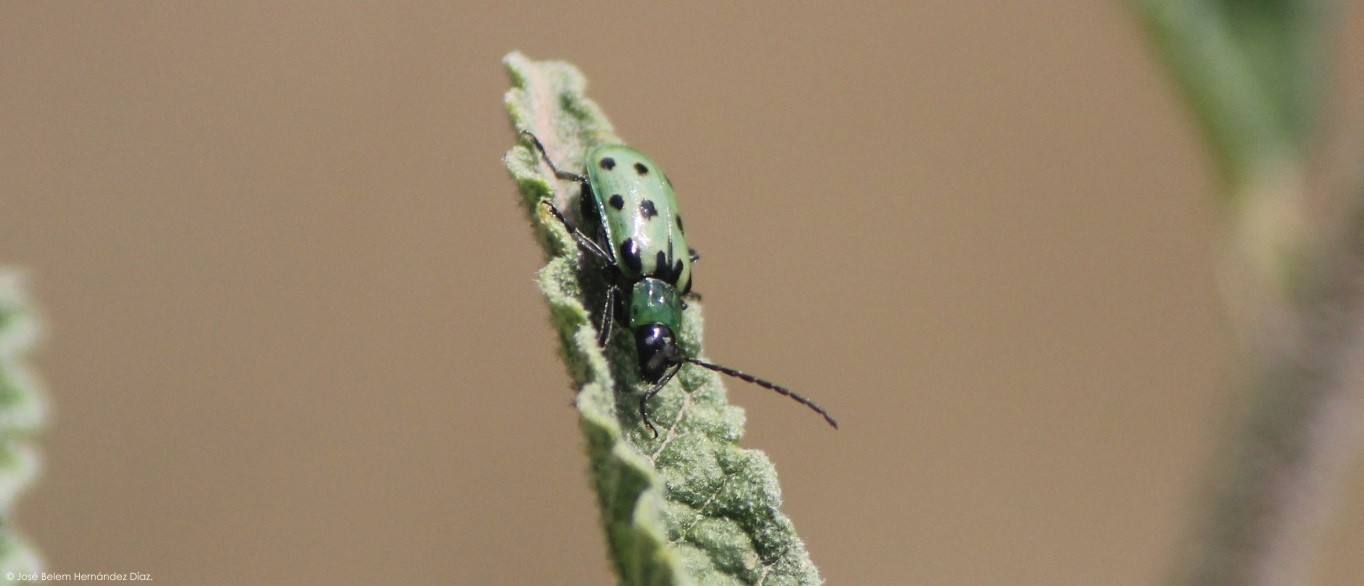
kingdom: Animalia
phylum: Arthropoda
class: Insecta
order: Coleoptera
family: Chrysomelidae
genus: Diabrotica
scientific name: Diabrotica undecimpunctata
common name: Spotted cucumber beetle
